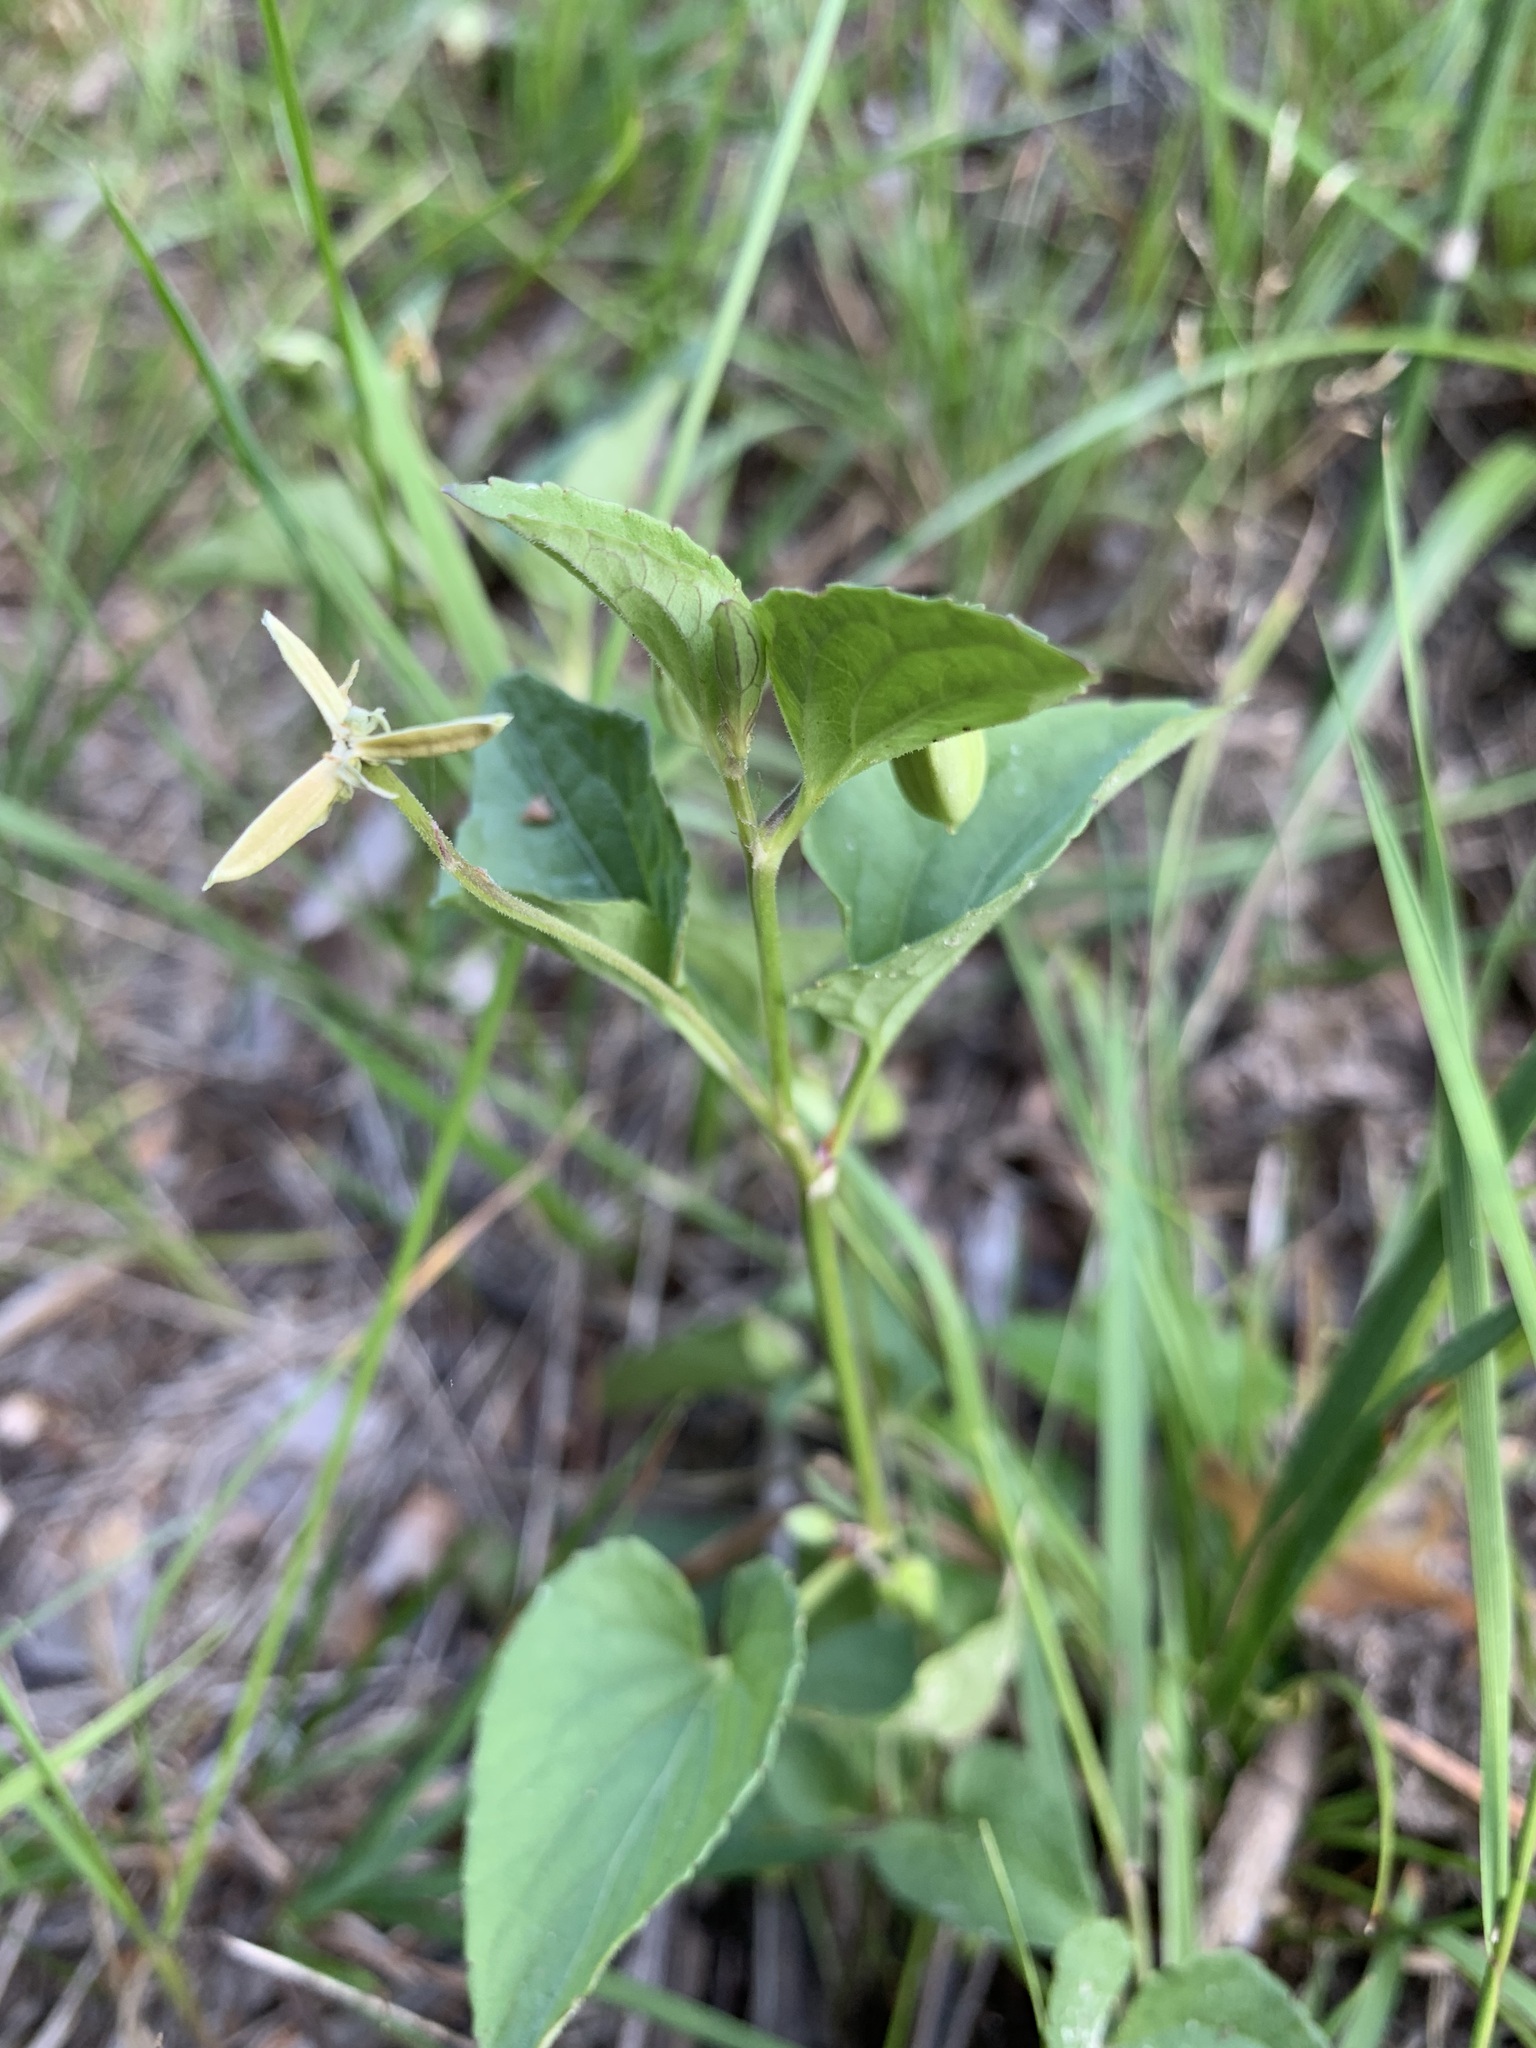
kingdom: Plantae
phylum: Tracheophyta
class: Magnoliopsida
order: Malpighiales
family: Violaceae
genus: Viola
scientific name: Viola
